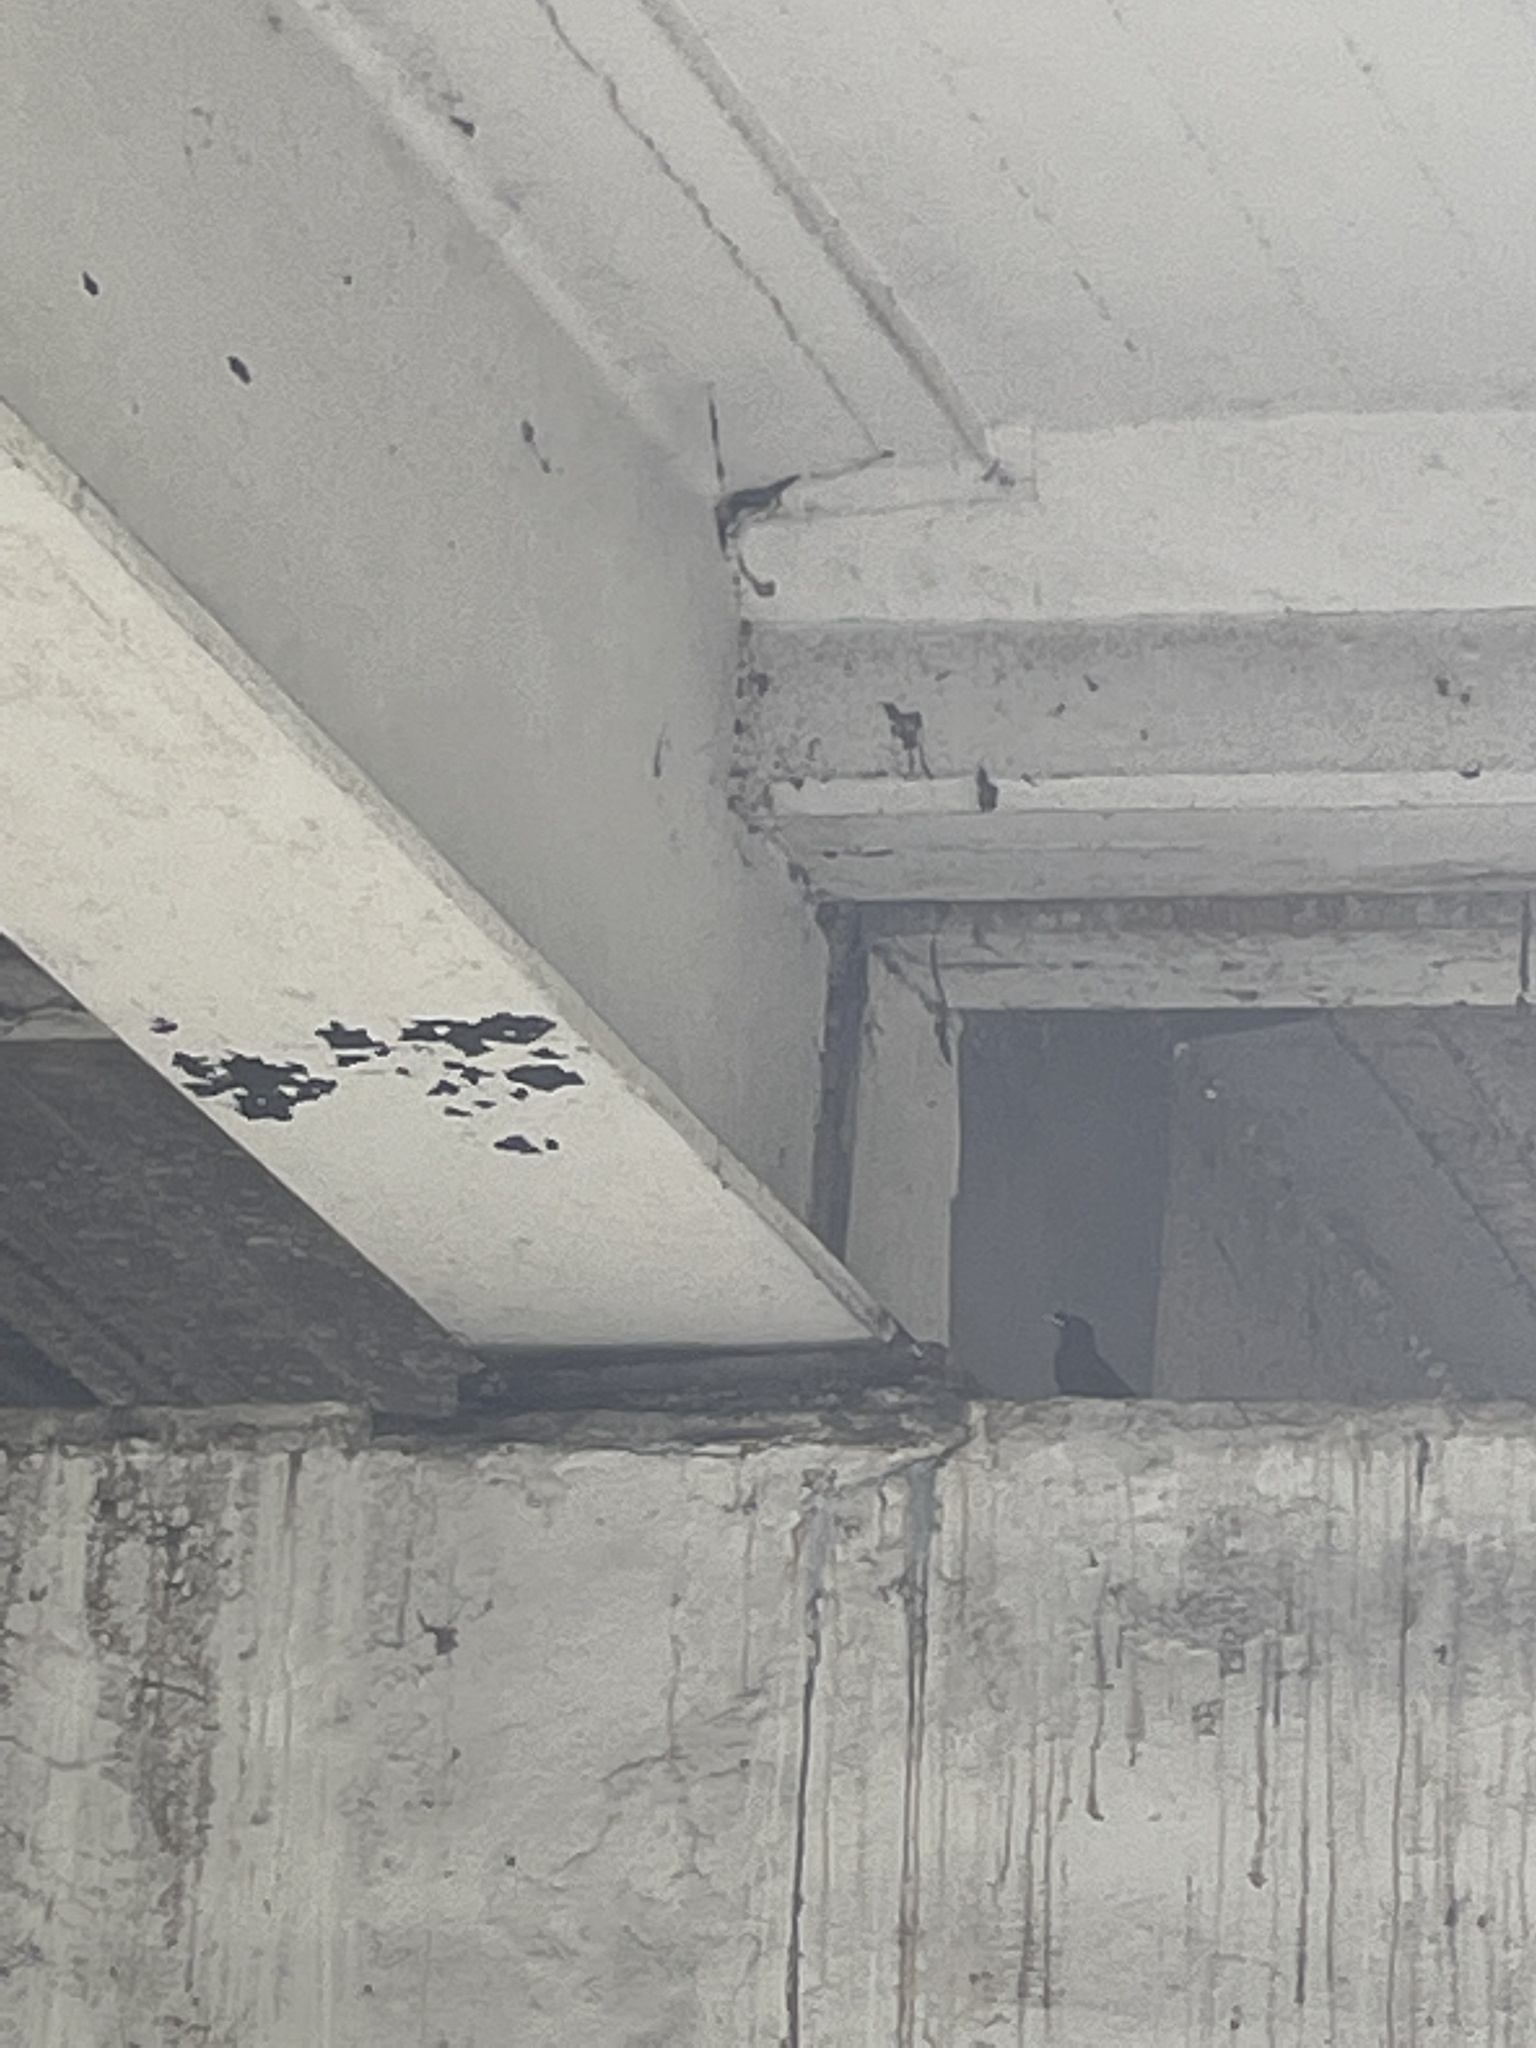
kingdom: Animalia
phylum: Chordata
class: Aves
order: Passeriformes
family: Sturnidae
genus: Acridotheres
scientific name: Acridotheres cristatellus
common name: Crested myna
